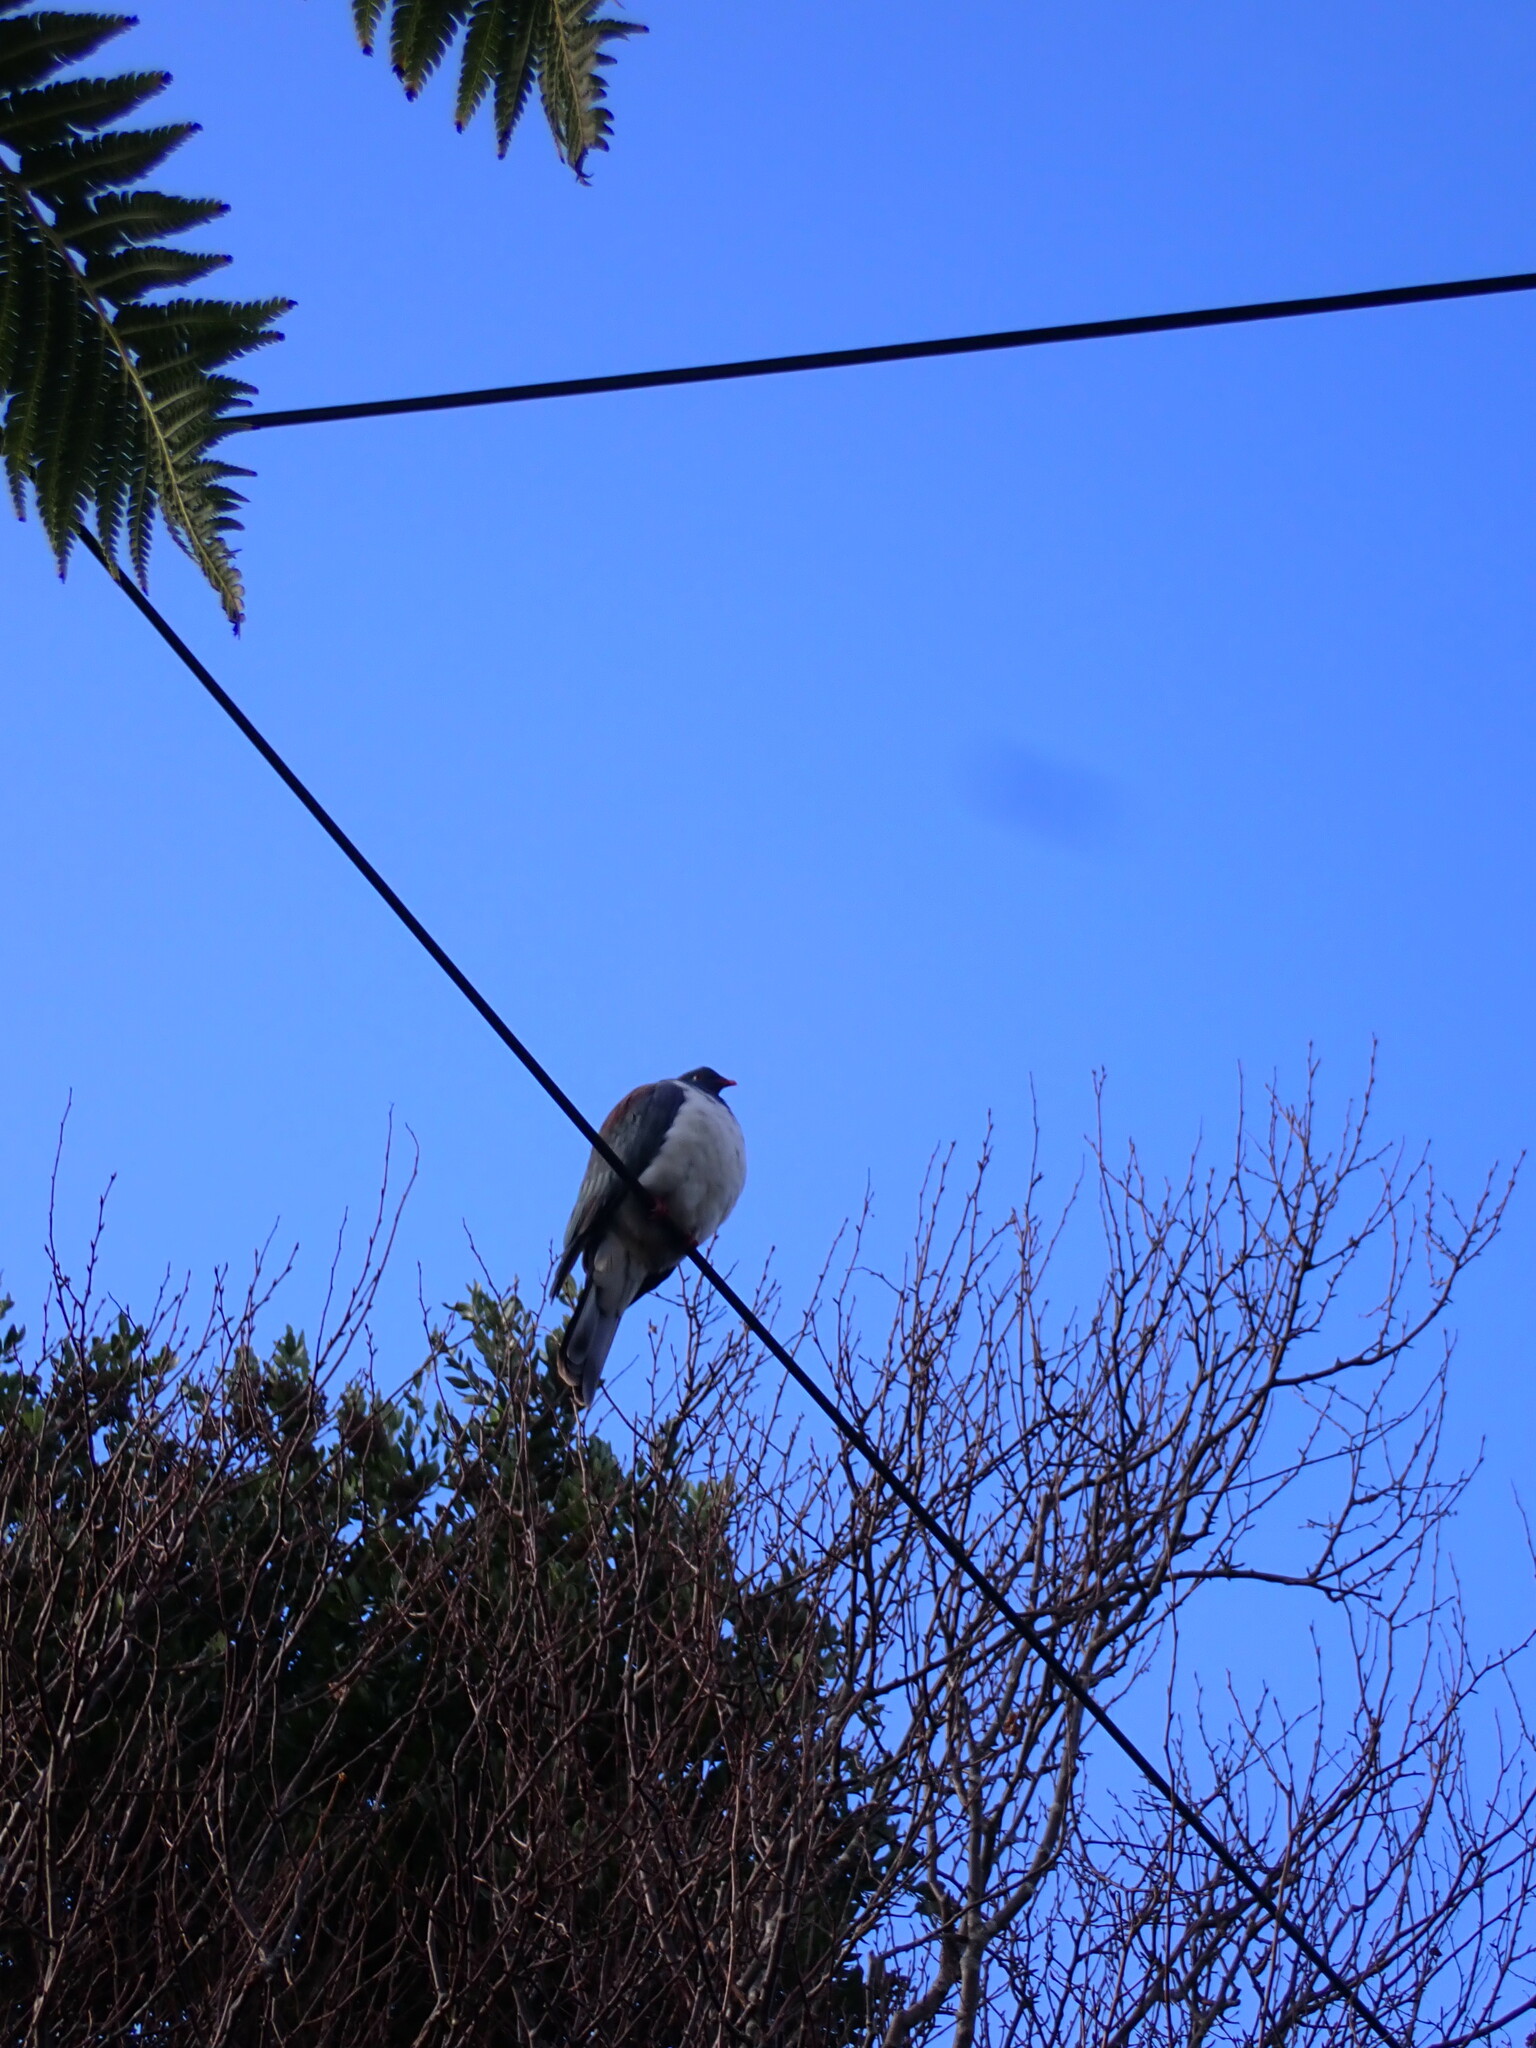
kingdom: Animalia
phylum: Chordata
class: Aves
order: Columbiformes
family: Columbidae
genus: Hemiphaga
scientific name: Hemiphaga novaeseelandiae
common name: New zealand pigeon
